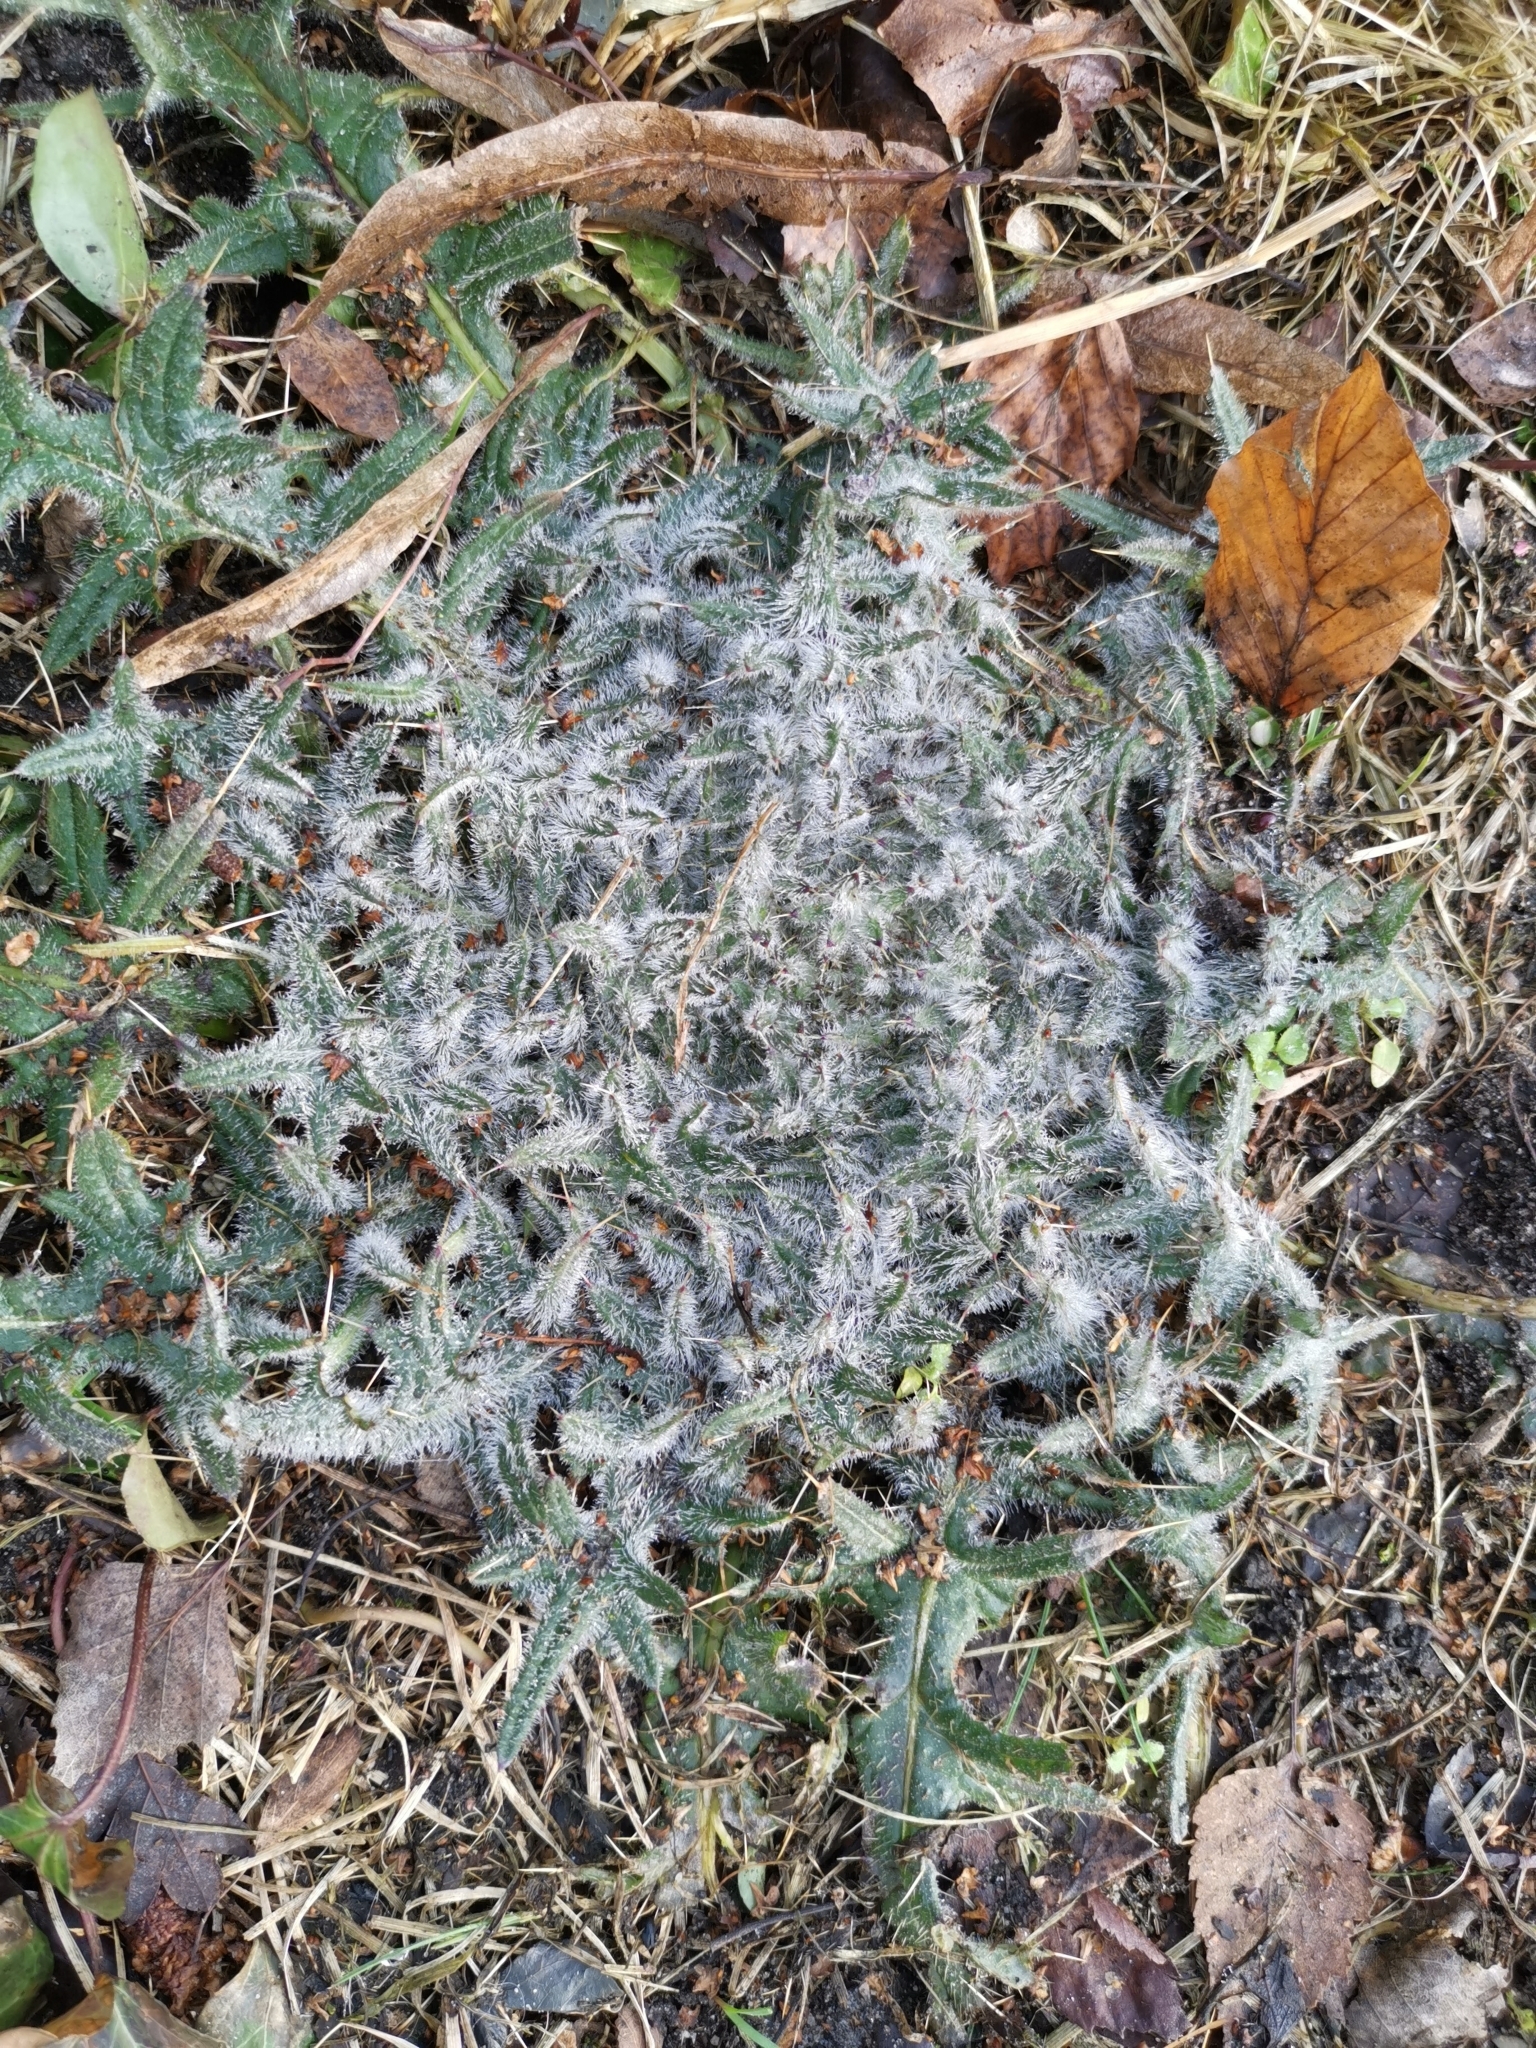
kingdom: Plantae
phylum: Tracheophyta
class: Magnoliopsida
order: Asterales
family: Asteraceae
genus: Cirsium
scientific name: Cirsium vulgare
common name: Bull thistle
